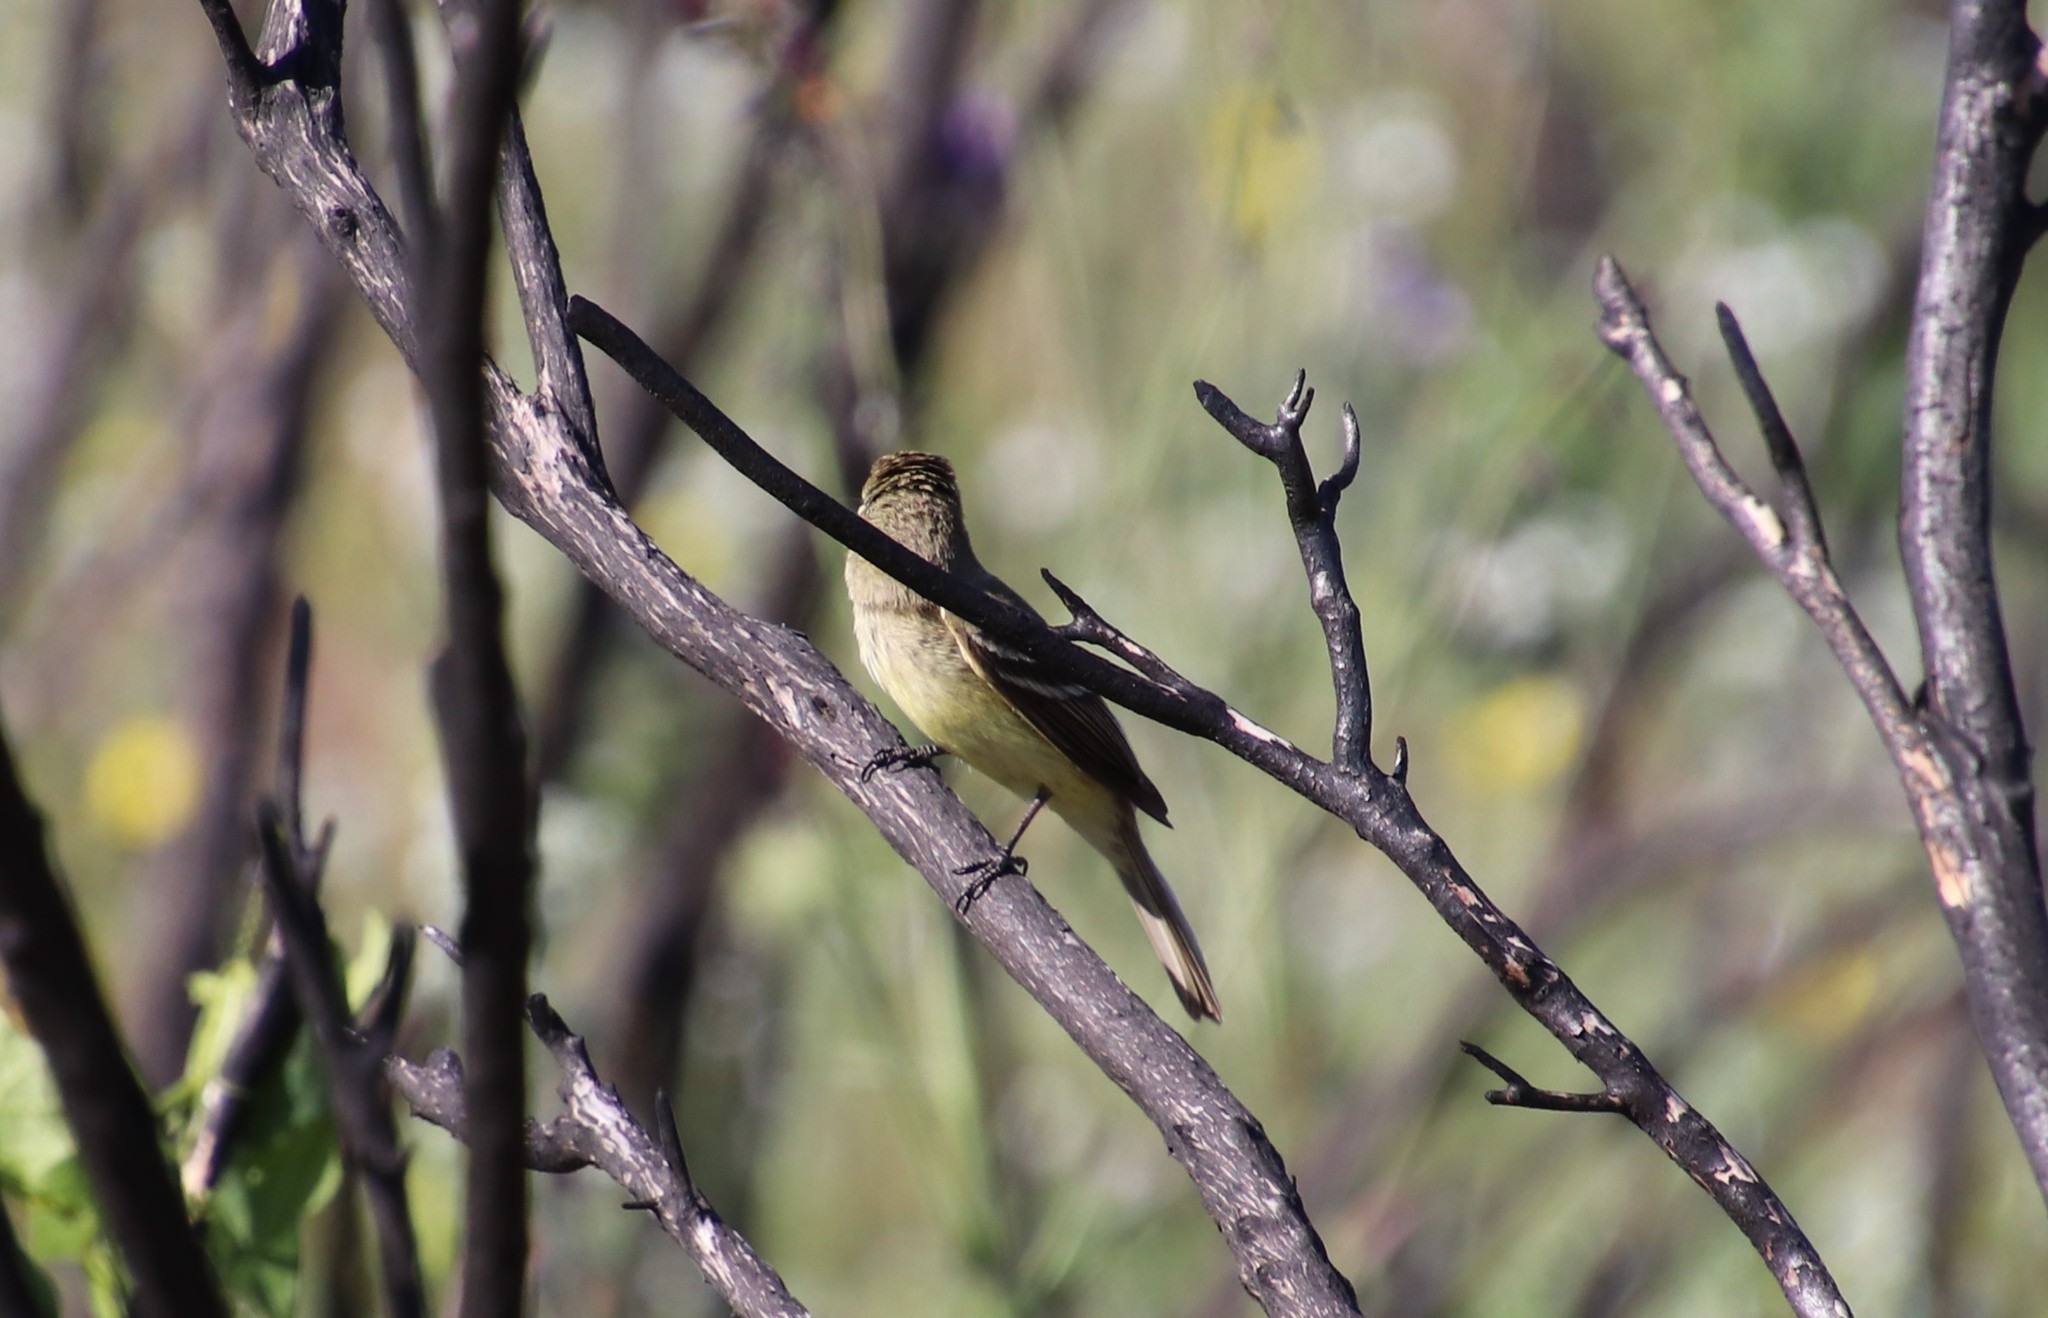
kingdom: Animalia
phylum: Chordata
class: Aves
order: Passeriformes
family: Tyrannidae
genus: Empidonax
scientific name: Empidonax
